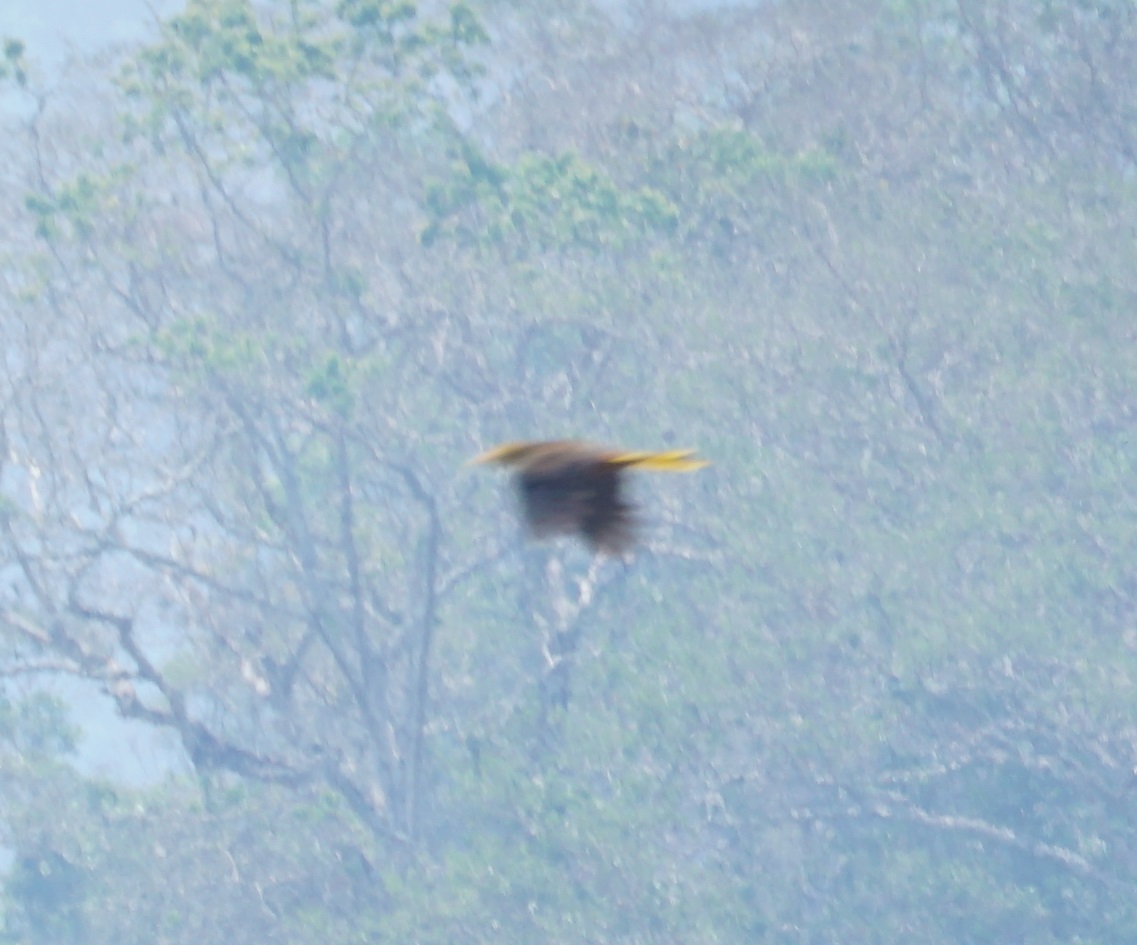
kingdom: Animalia
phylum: Chordata
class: Aves
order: Passeriformes
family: Icteridae
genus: Psarocolius
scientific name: Psarocolius angustifrons
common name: Russet-backed oropendola
